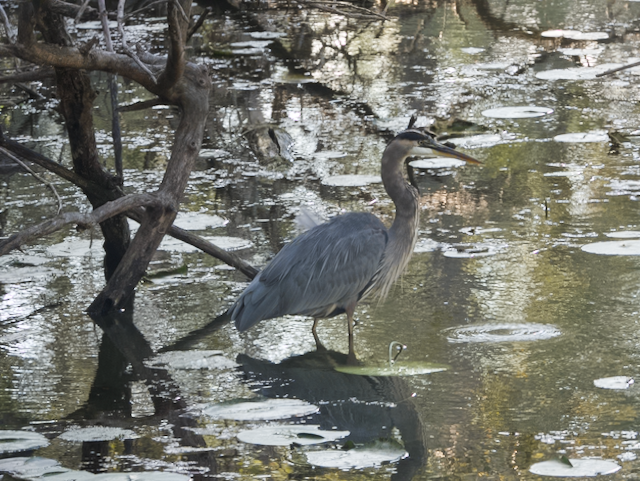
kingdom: Animalia
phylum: Chordata
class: Aves
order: Pelecaniformes
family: Ardeidae
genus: Ardea
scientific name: Ardea herodias
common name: Great blue heron
